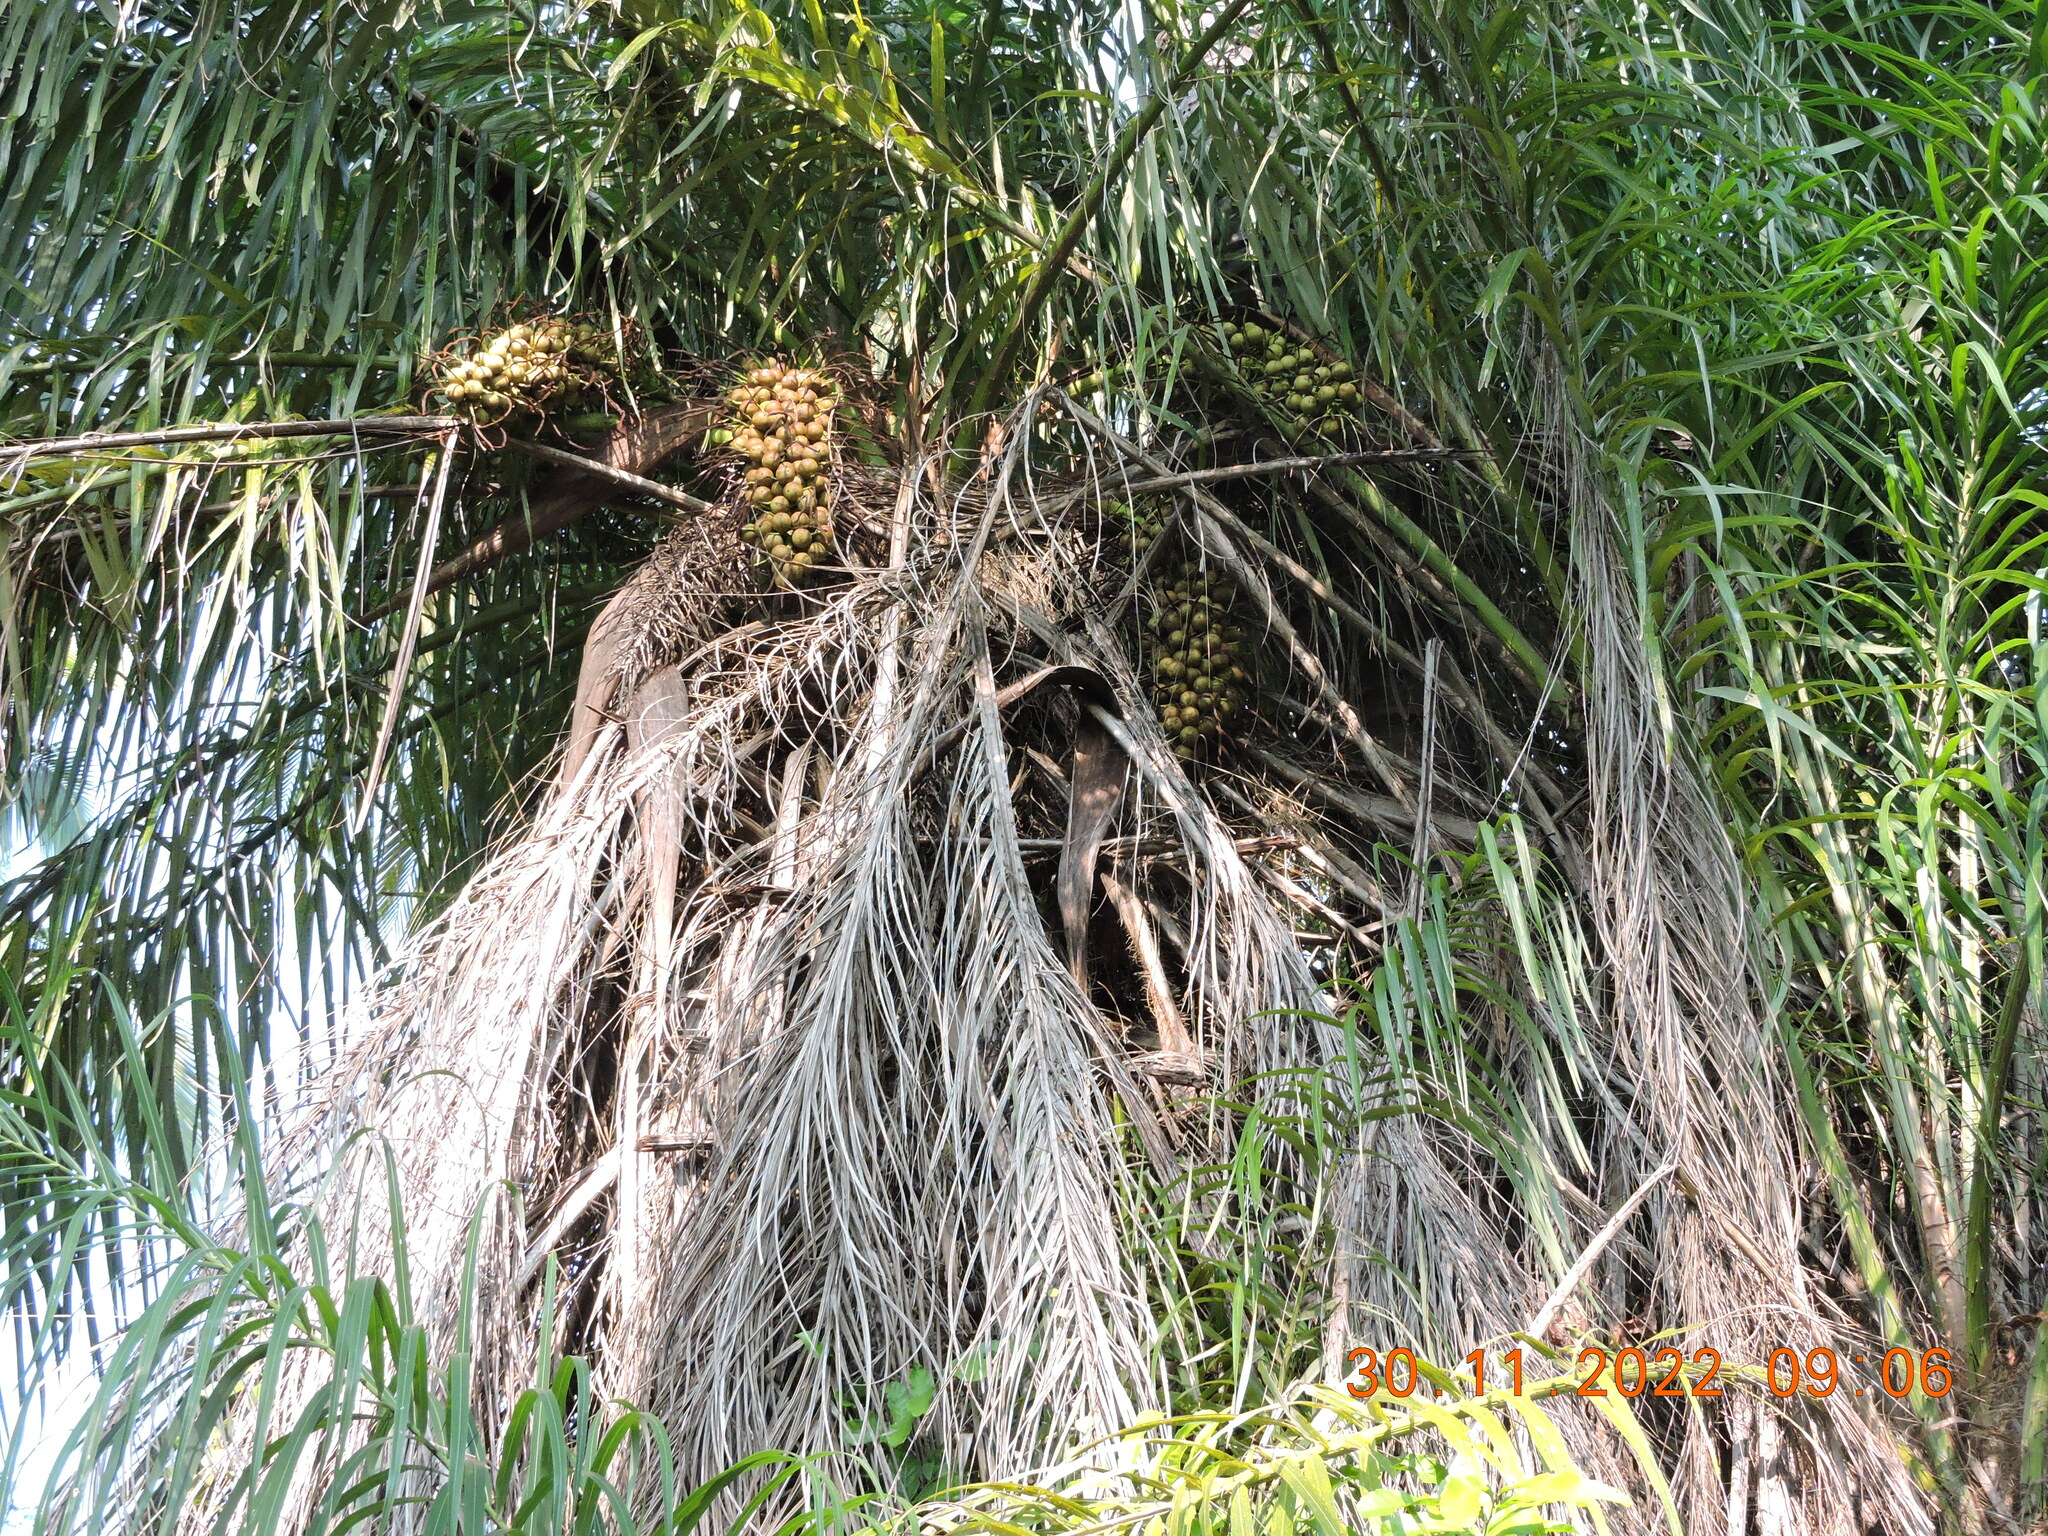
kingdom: Plantae
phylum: Tracheophyta
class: Liliopsida
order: Arecales
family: Arecaceae
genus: Acrocomia
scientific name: Acrocomia aculeata
